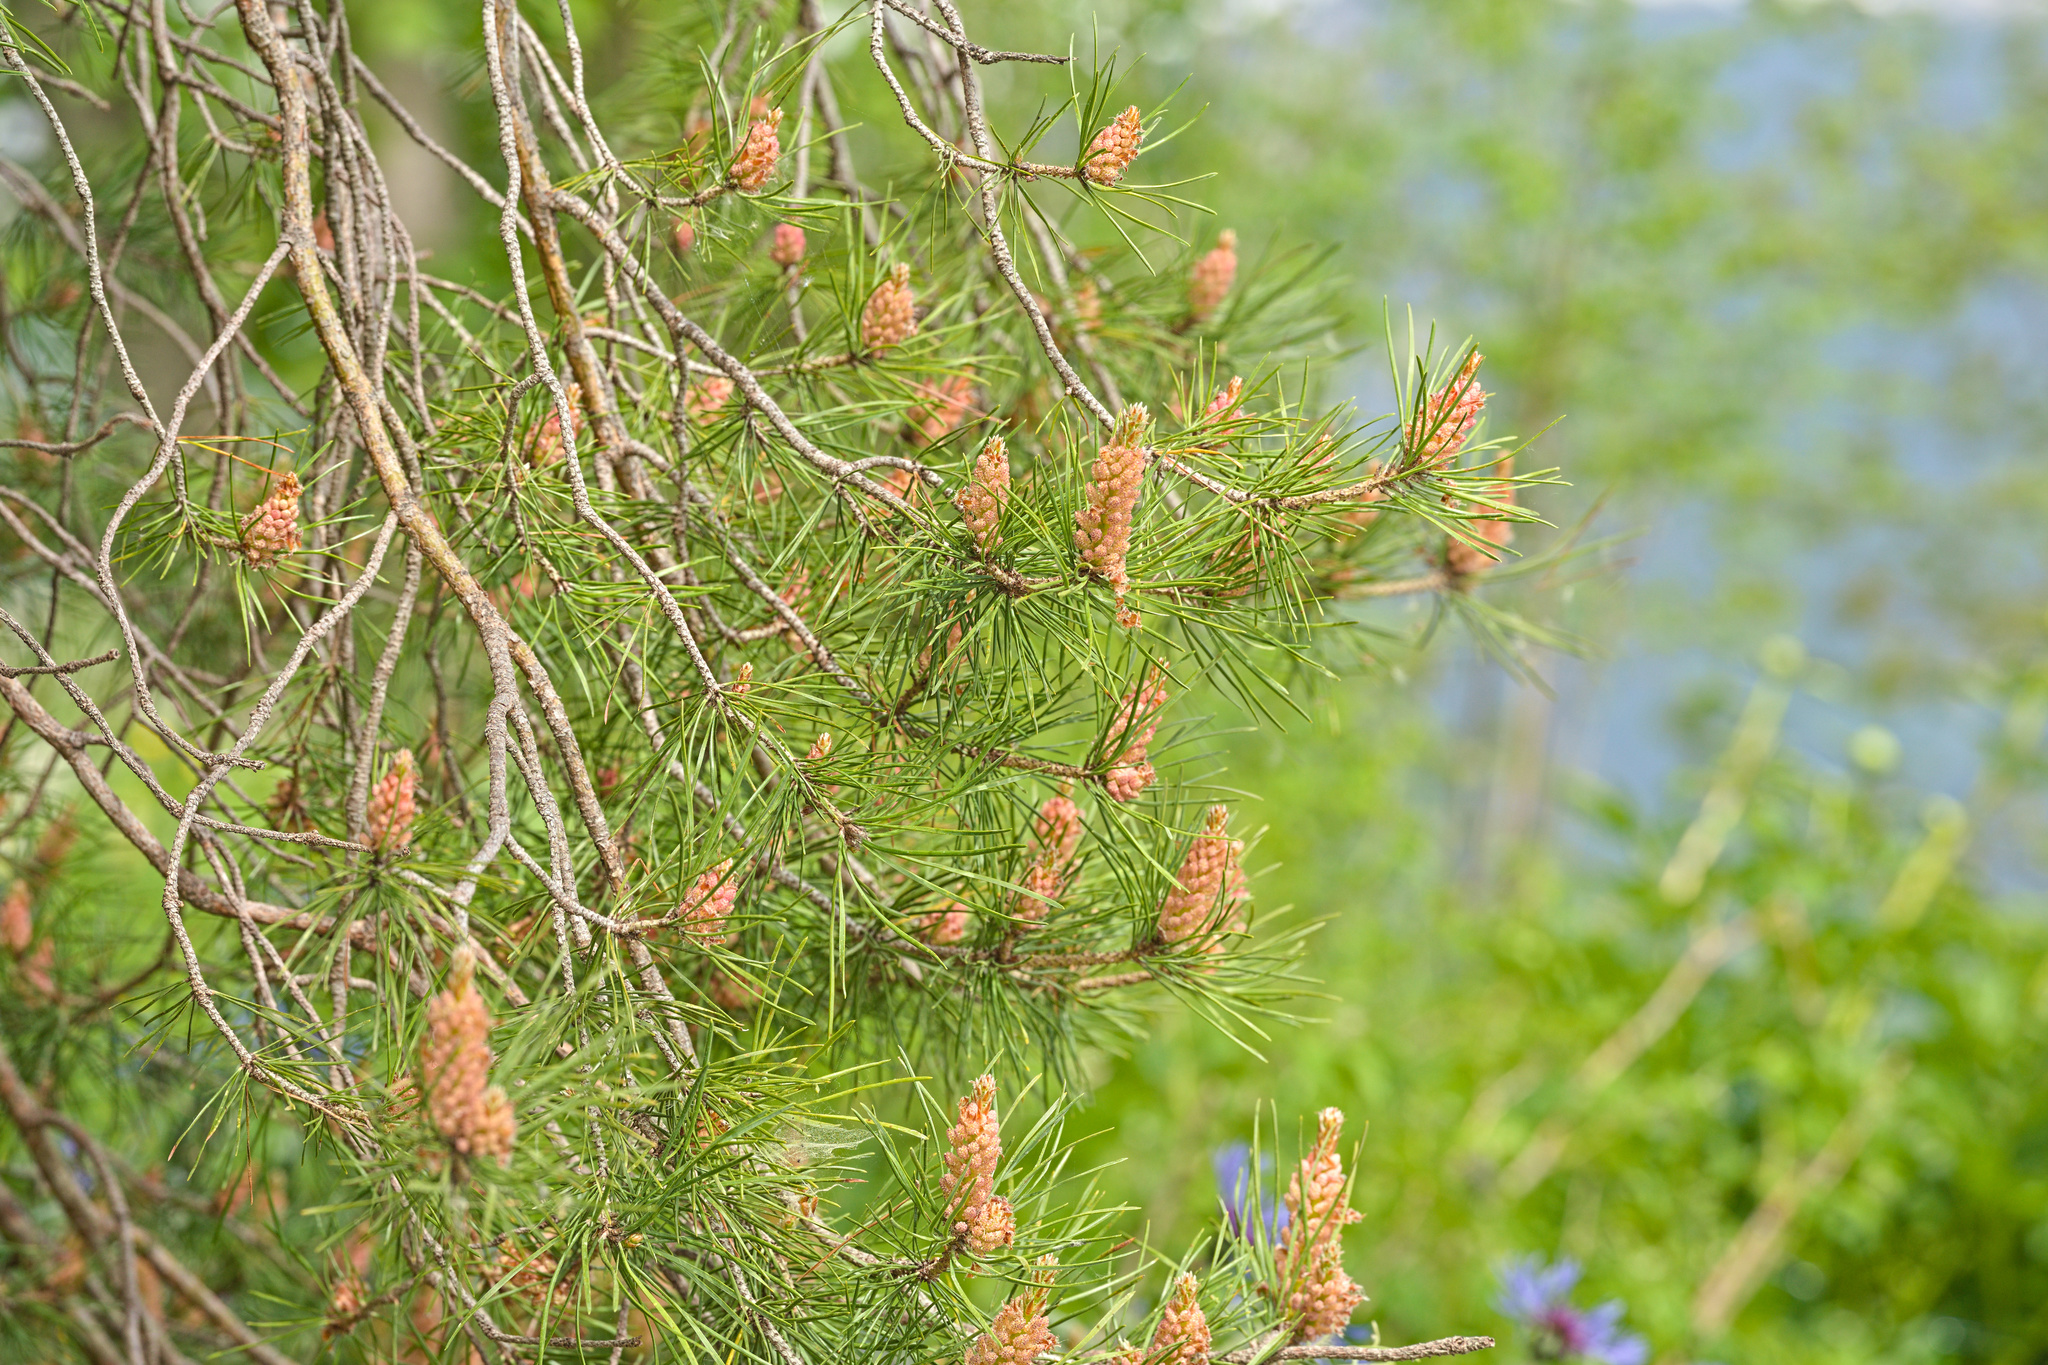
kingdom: Plantae
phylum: Tracheophyta
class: Pinopsida
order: Pinales
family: Pinaceae
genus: Pinus
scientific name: Pinus sylvestris
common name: Scots pine
